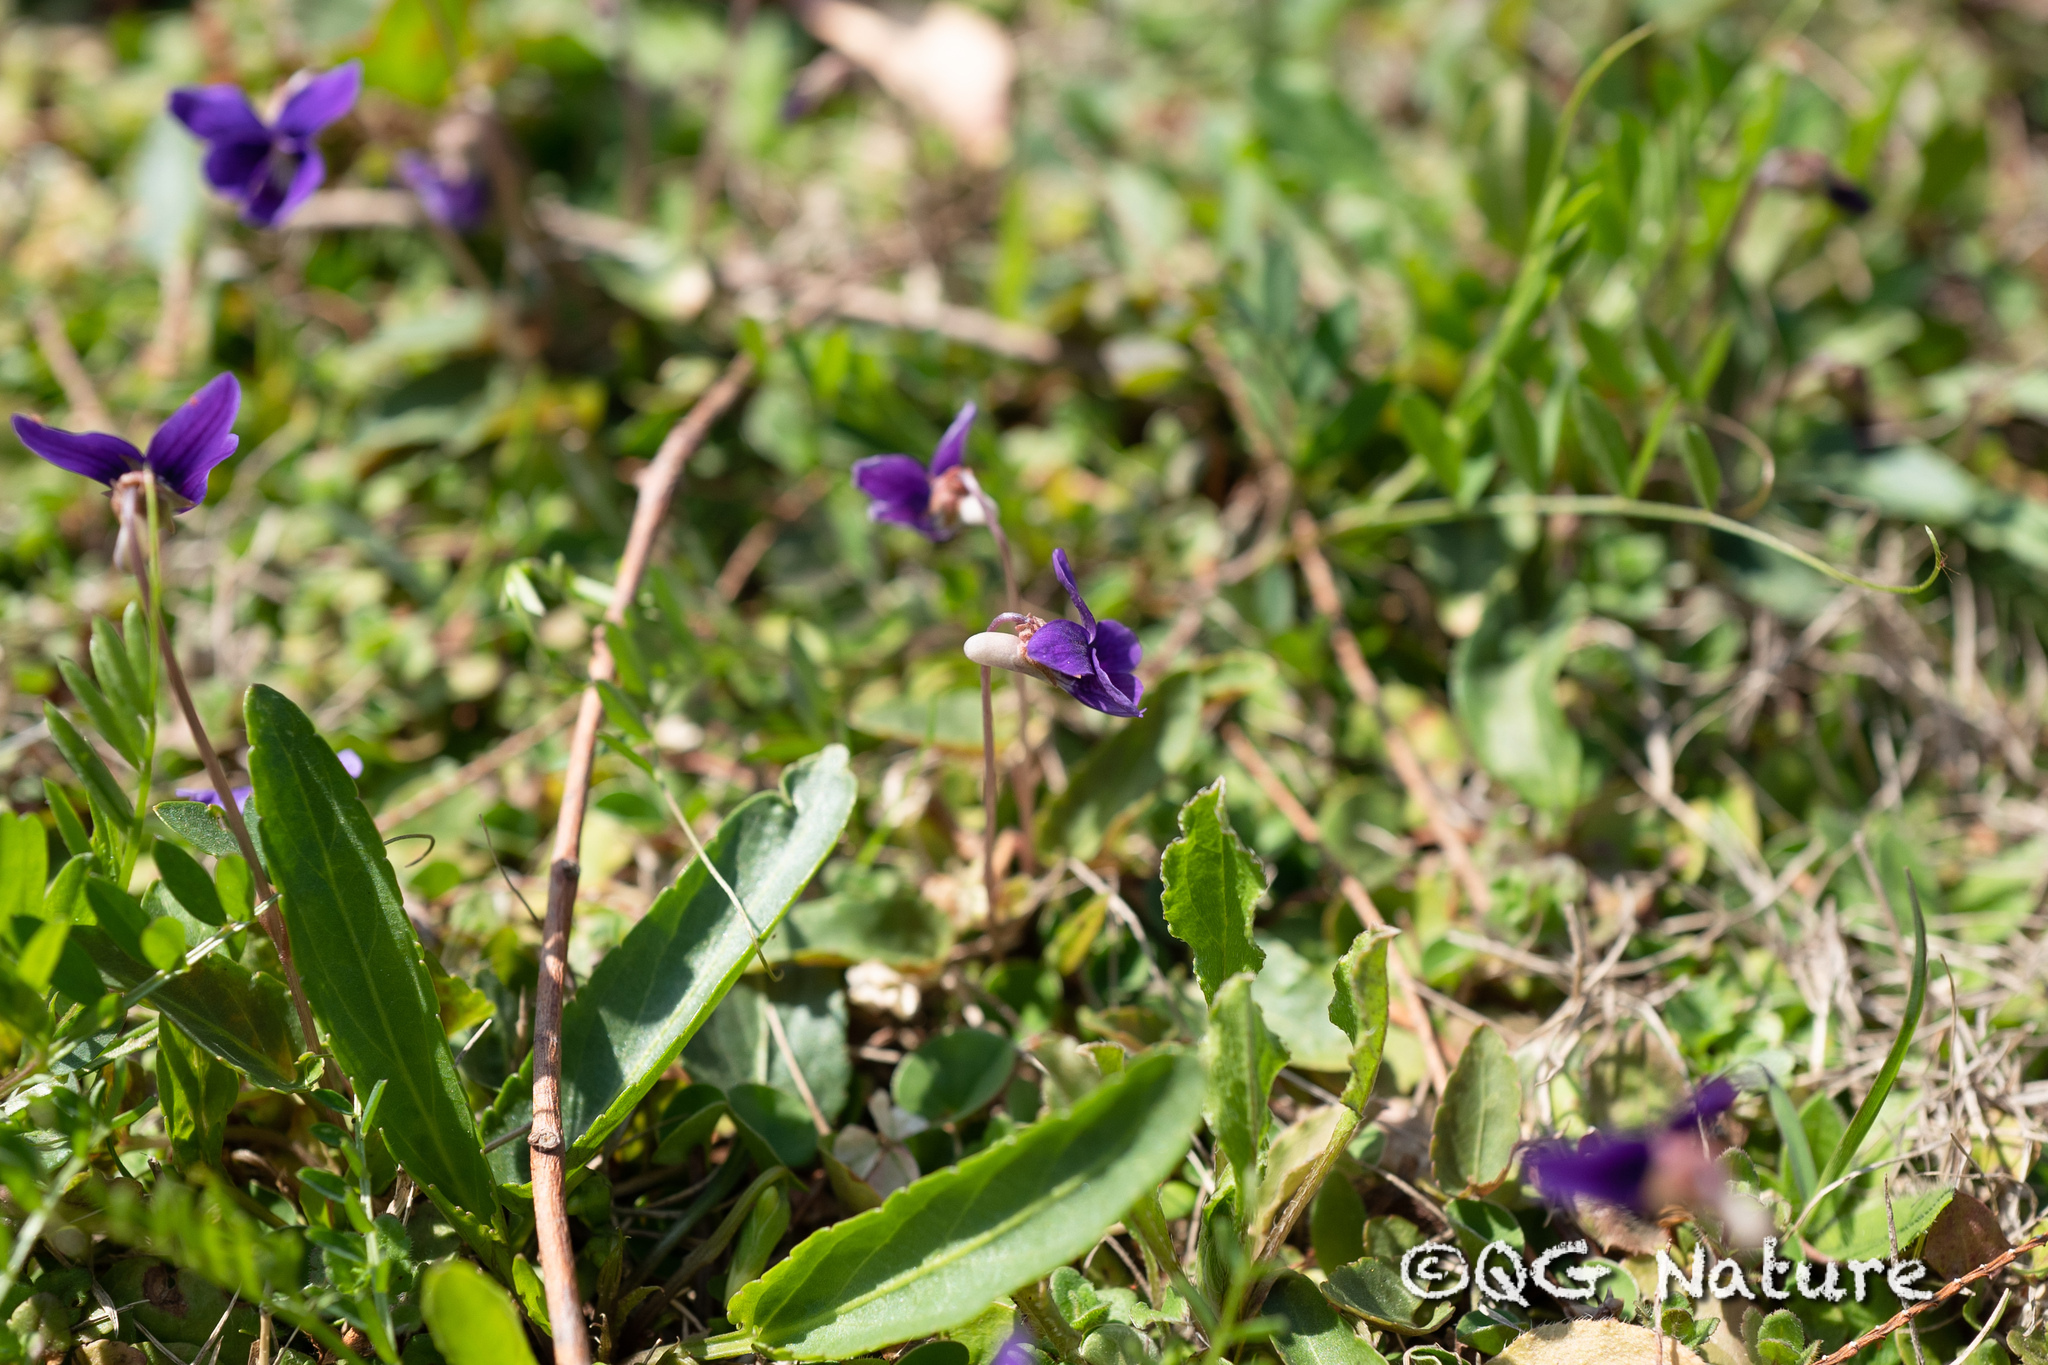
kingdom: Plantae
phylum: Tracheophyta
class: Magnoliopsida
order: Malpighiales
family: Violaceae
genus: Viola
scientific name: Viola inconspicua
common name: Long sepal violet
